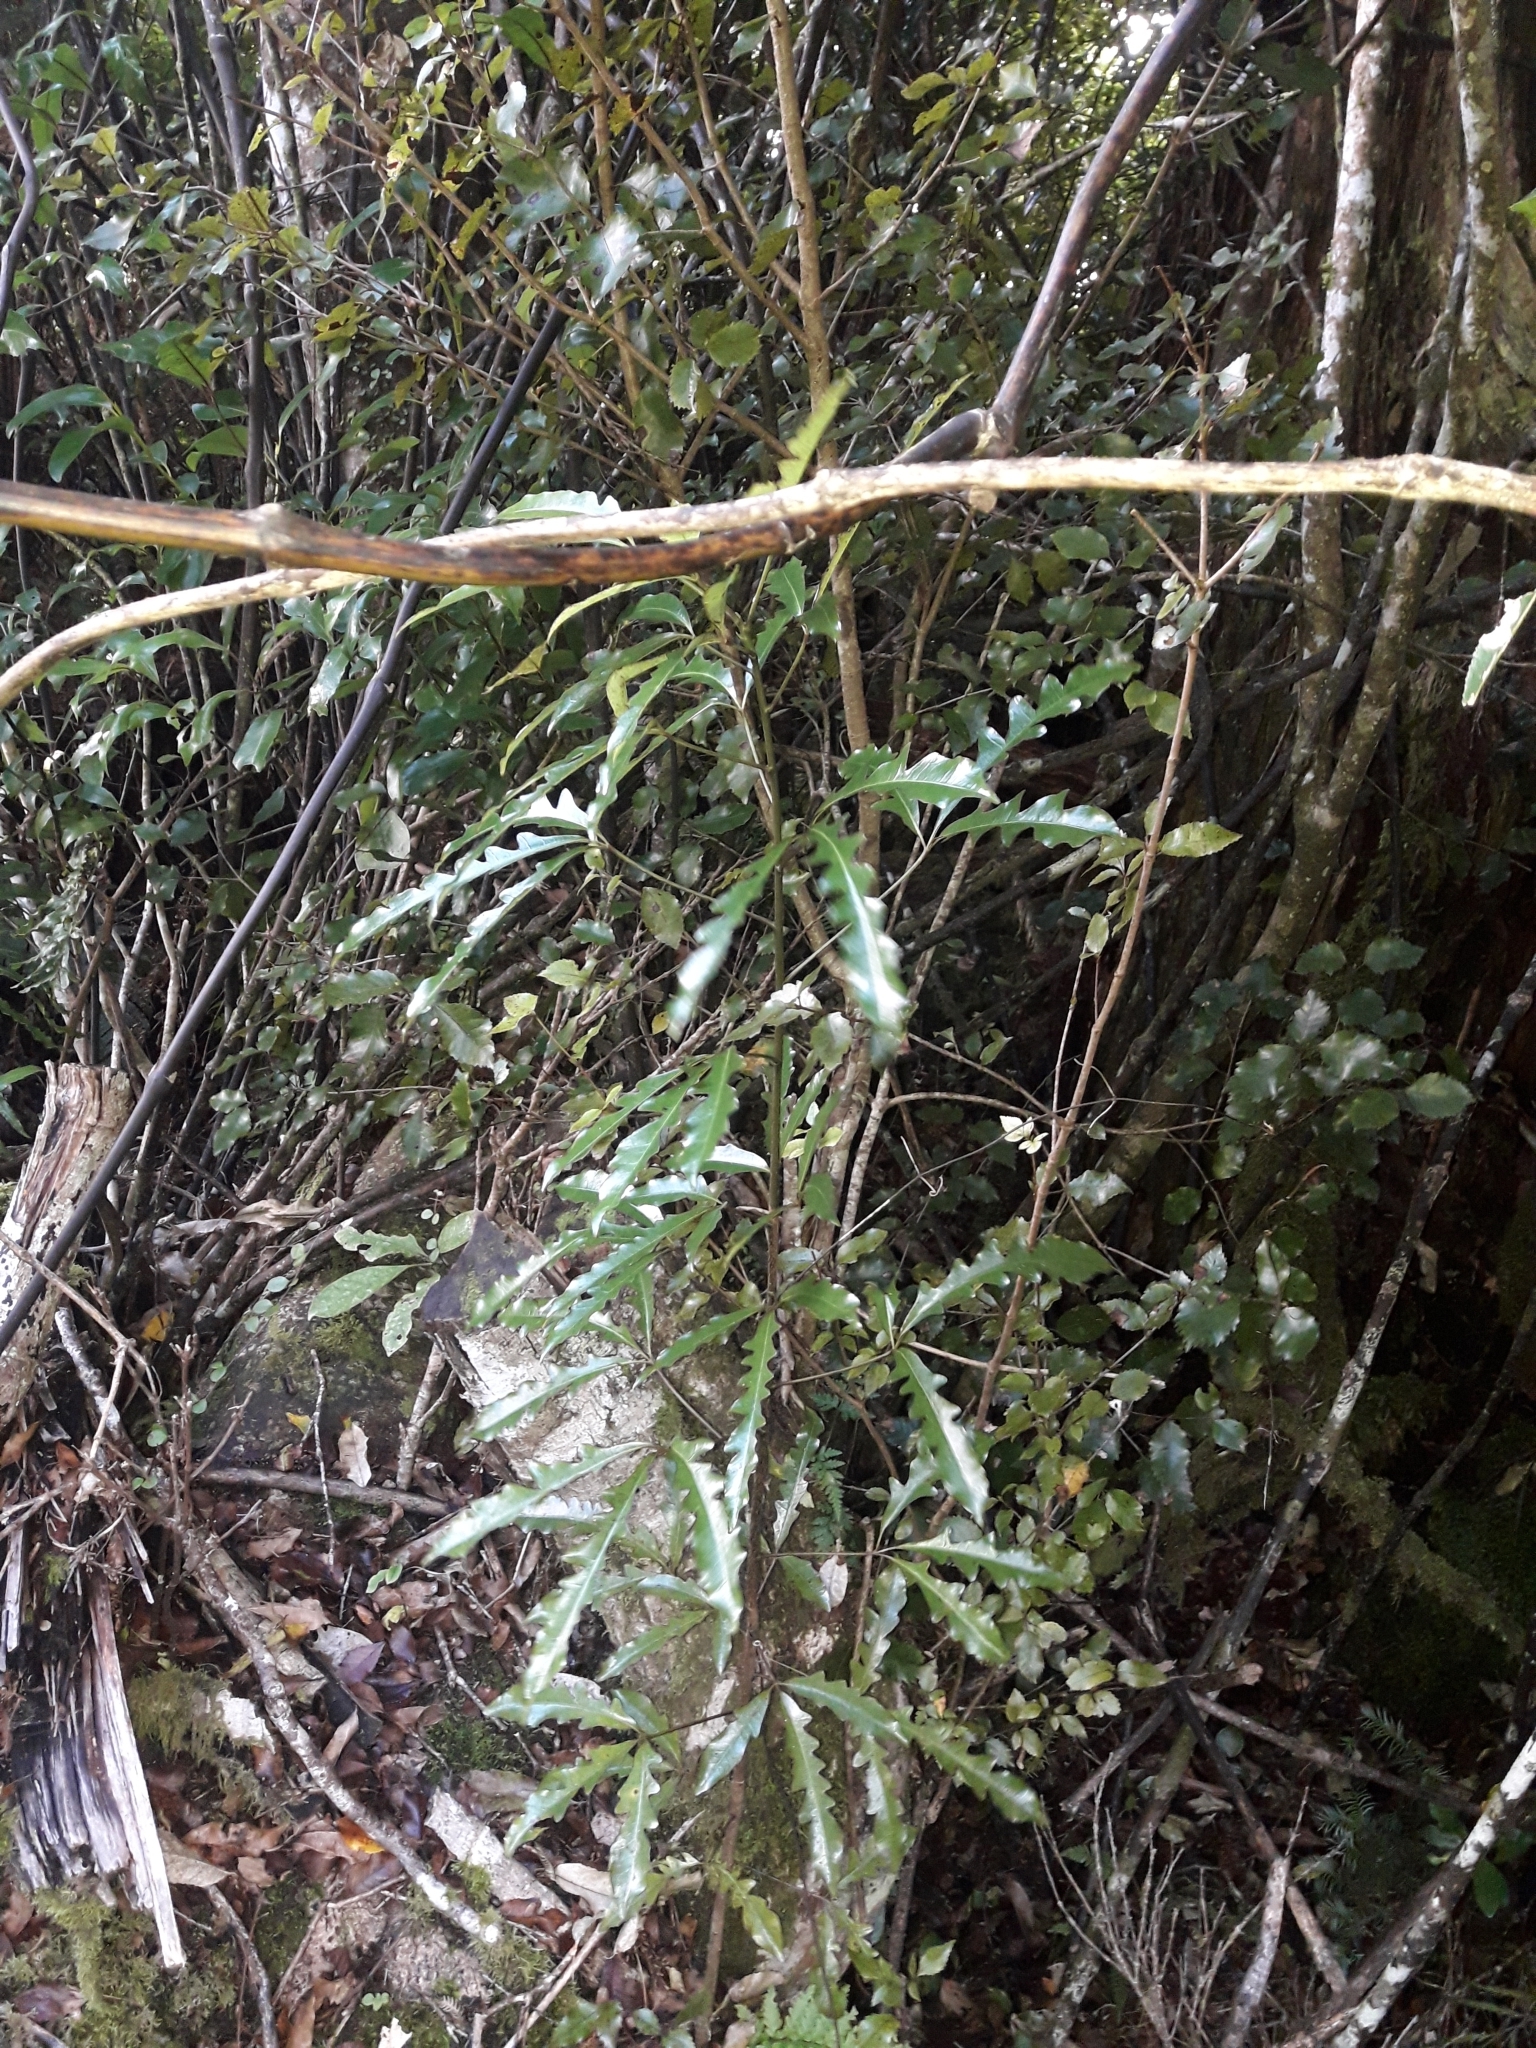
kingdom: Plantae
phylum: Tracheophyta
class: Magnoliopsida
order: Apiales
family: Araliaceae
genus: Raukaua
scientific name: Raukaua edgerleyi
